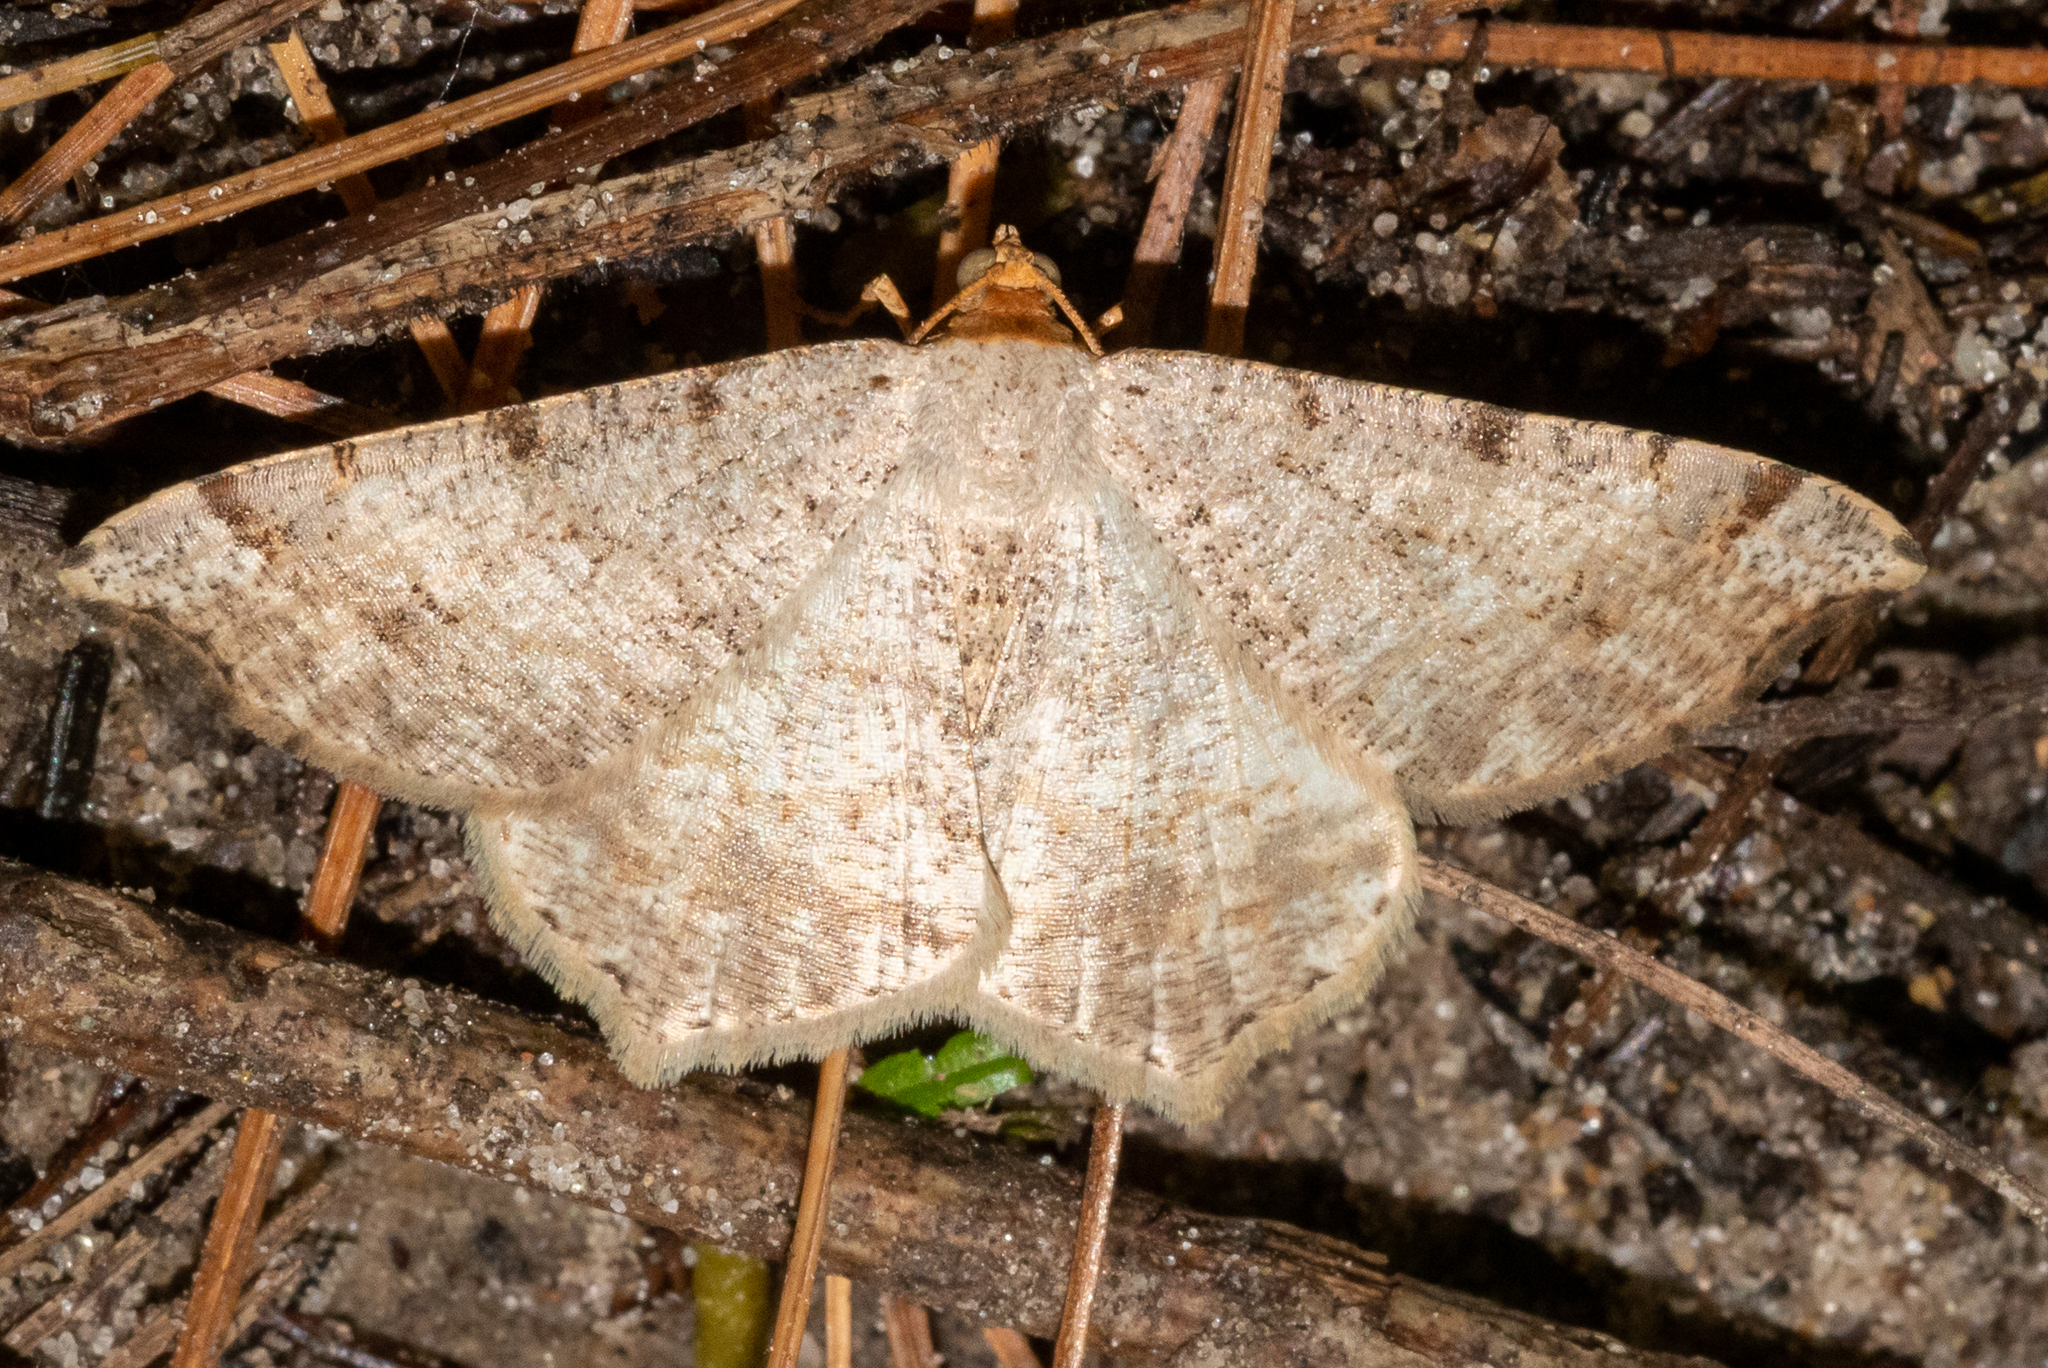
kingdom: Animalia
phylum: Arthropoda
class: Insecta
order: Lepidoptera
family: Geometridae
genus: Macaria
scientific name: Macaria bisignata
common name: Red-headed inchworm
